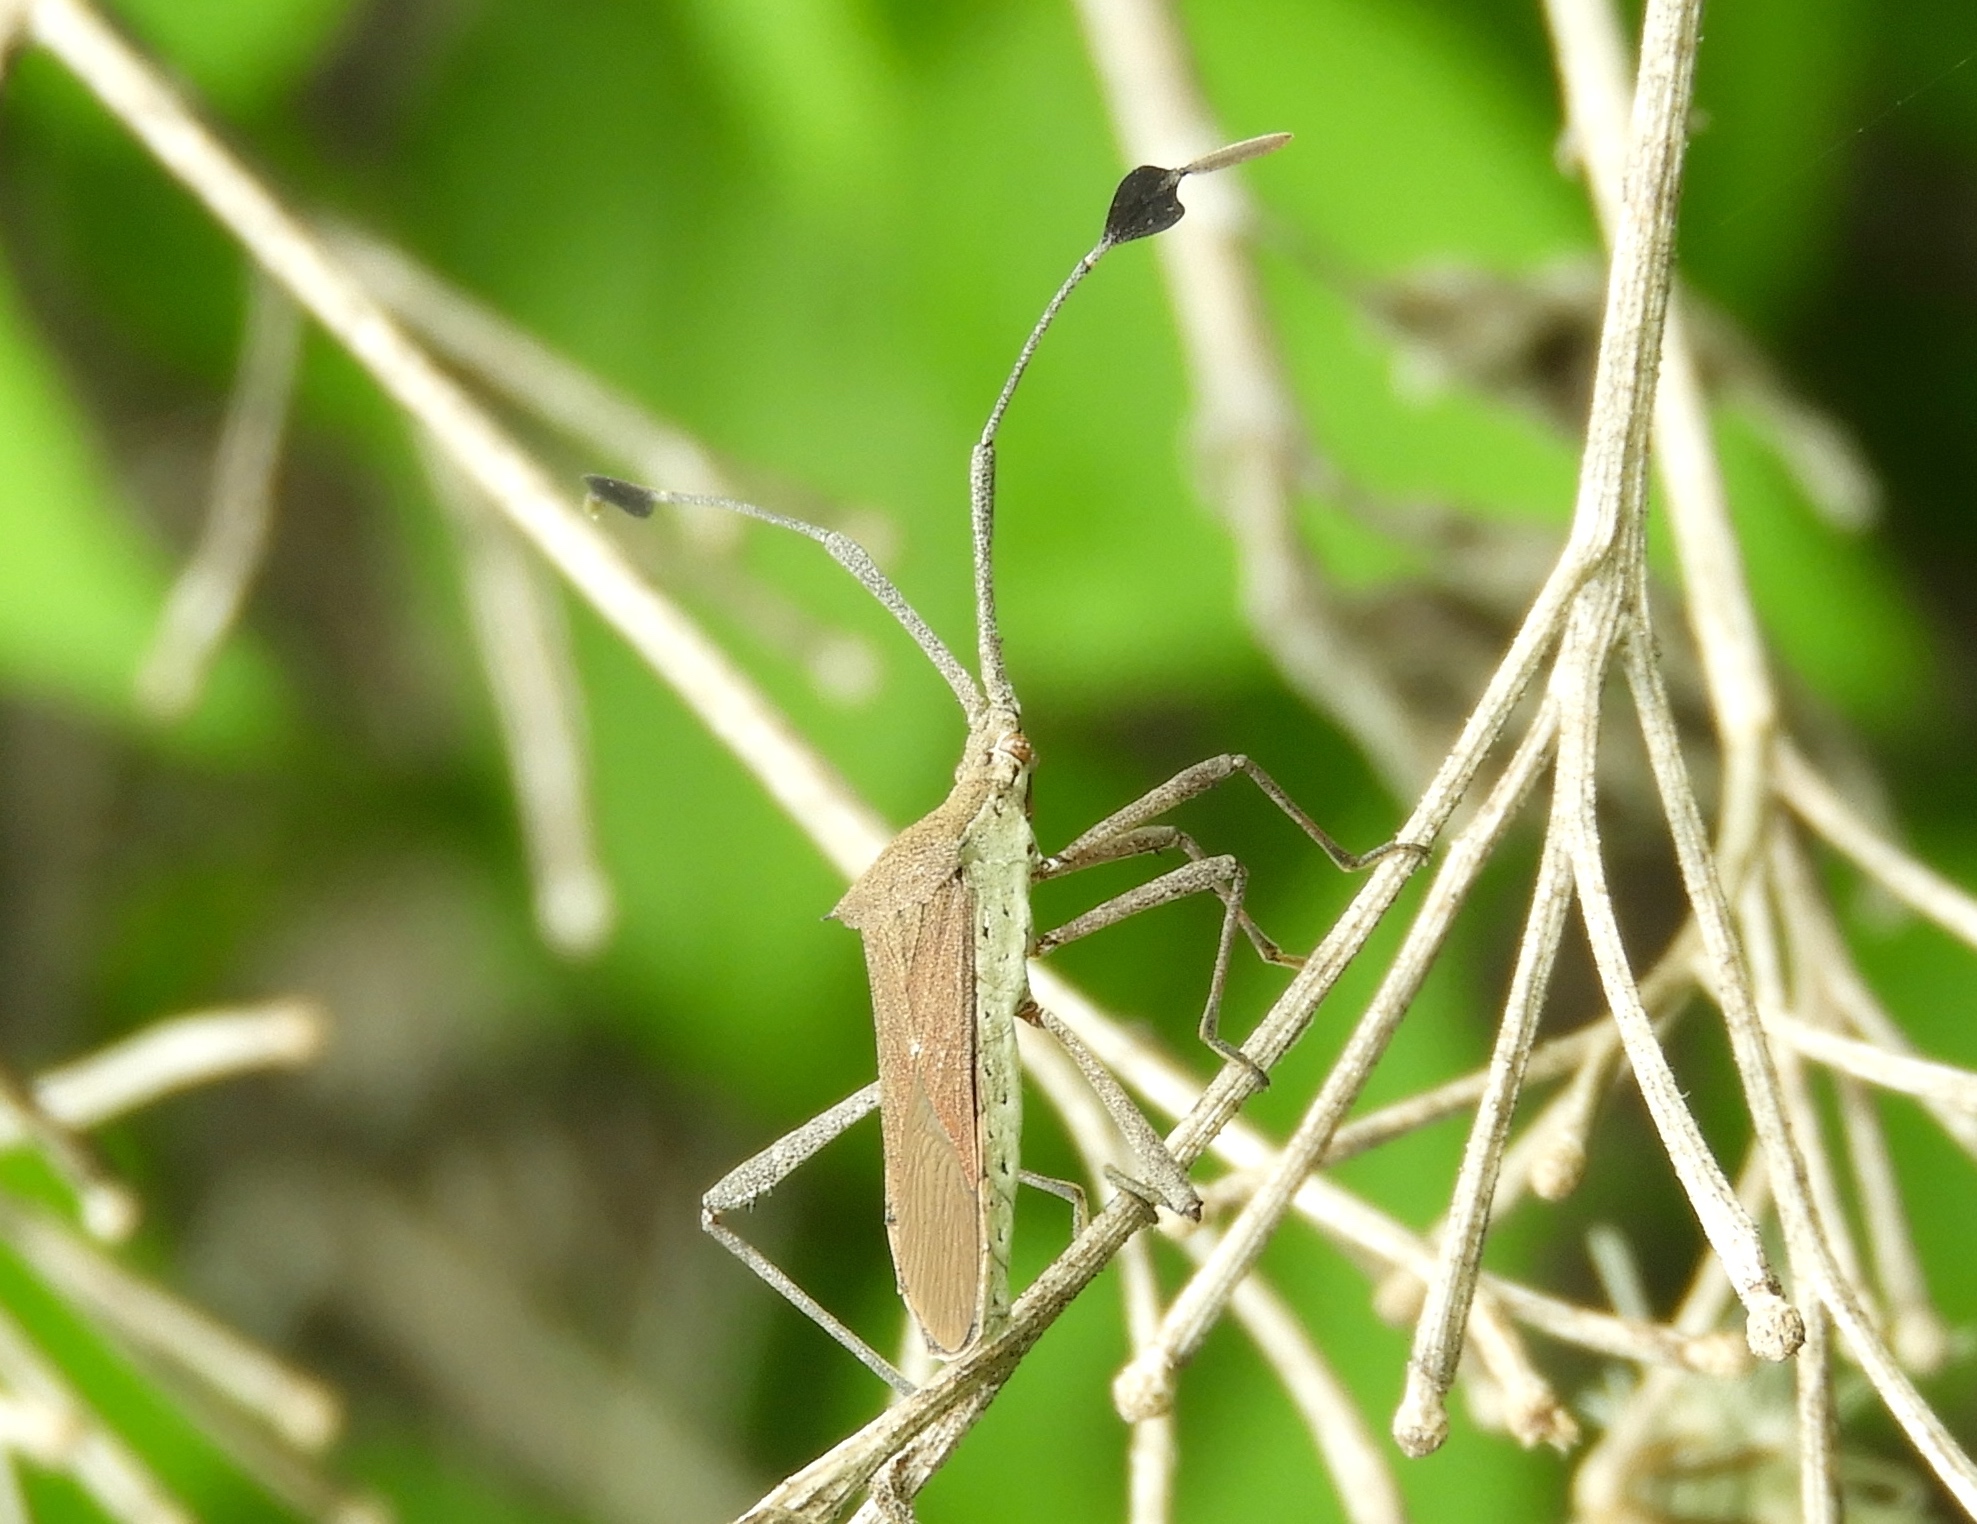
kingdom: Animalia
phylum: Arthropoda
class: Insecta
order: Hemiptera
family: Coreidae
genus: Chariesterus
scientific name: Chariesterus
